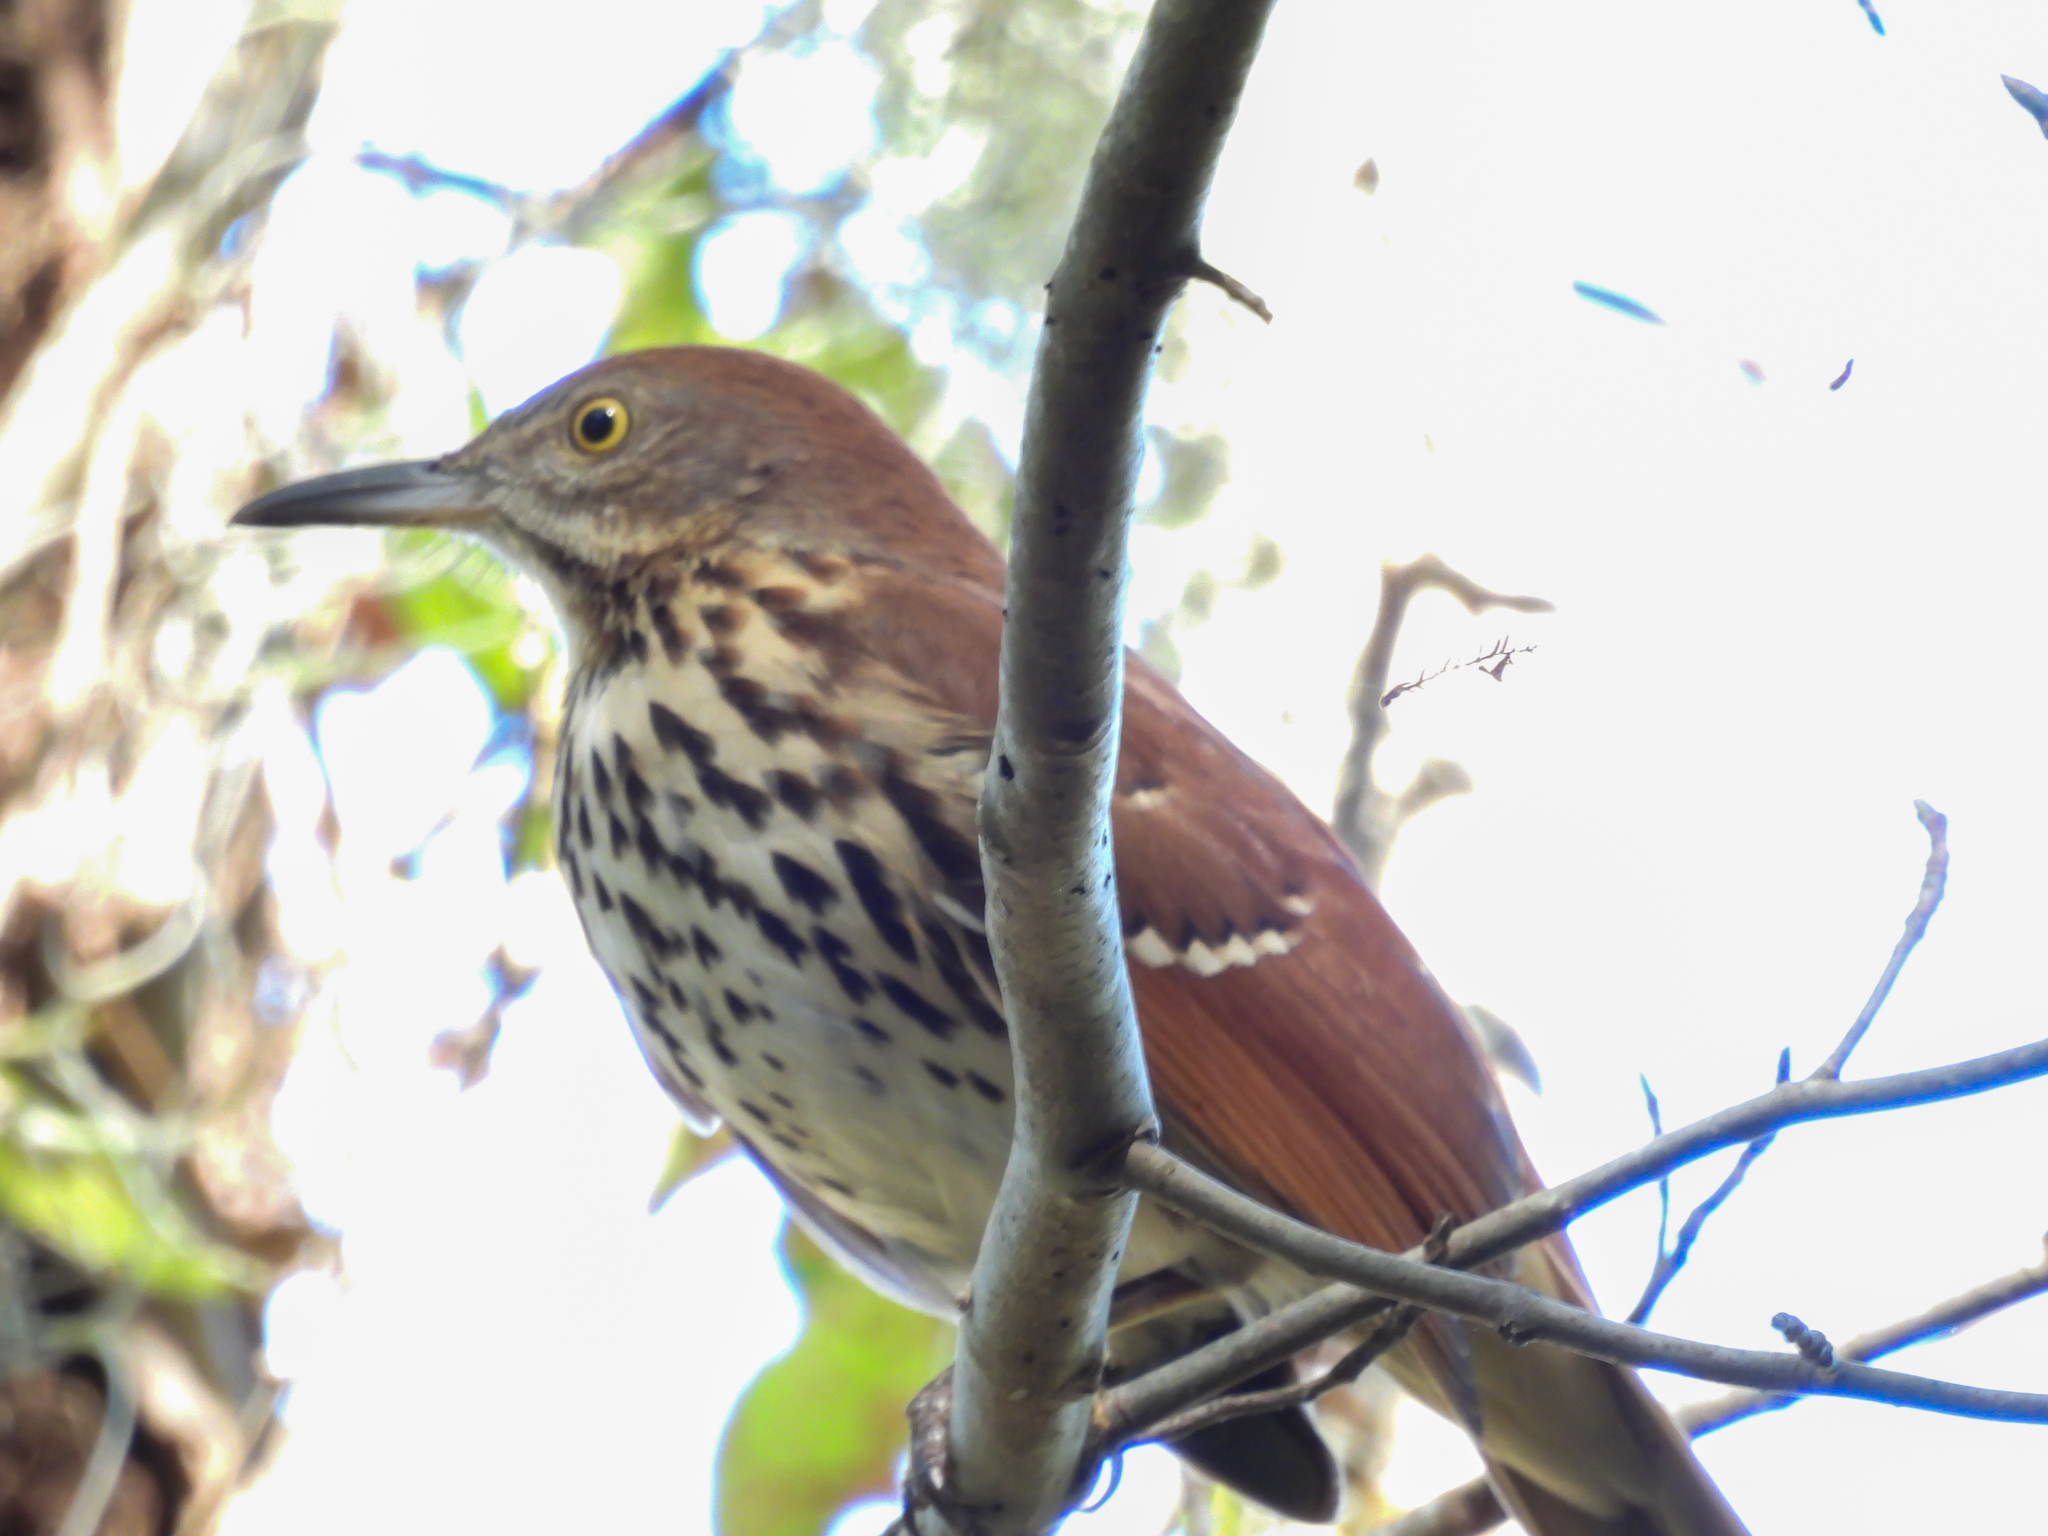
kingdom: Animalia
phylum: Chordata
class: Aves
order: Passeriformes
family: Mimidae
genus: Toxostoma
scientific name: Toxostoma rufum
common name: Brown thrasher
